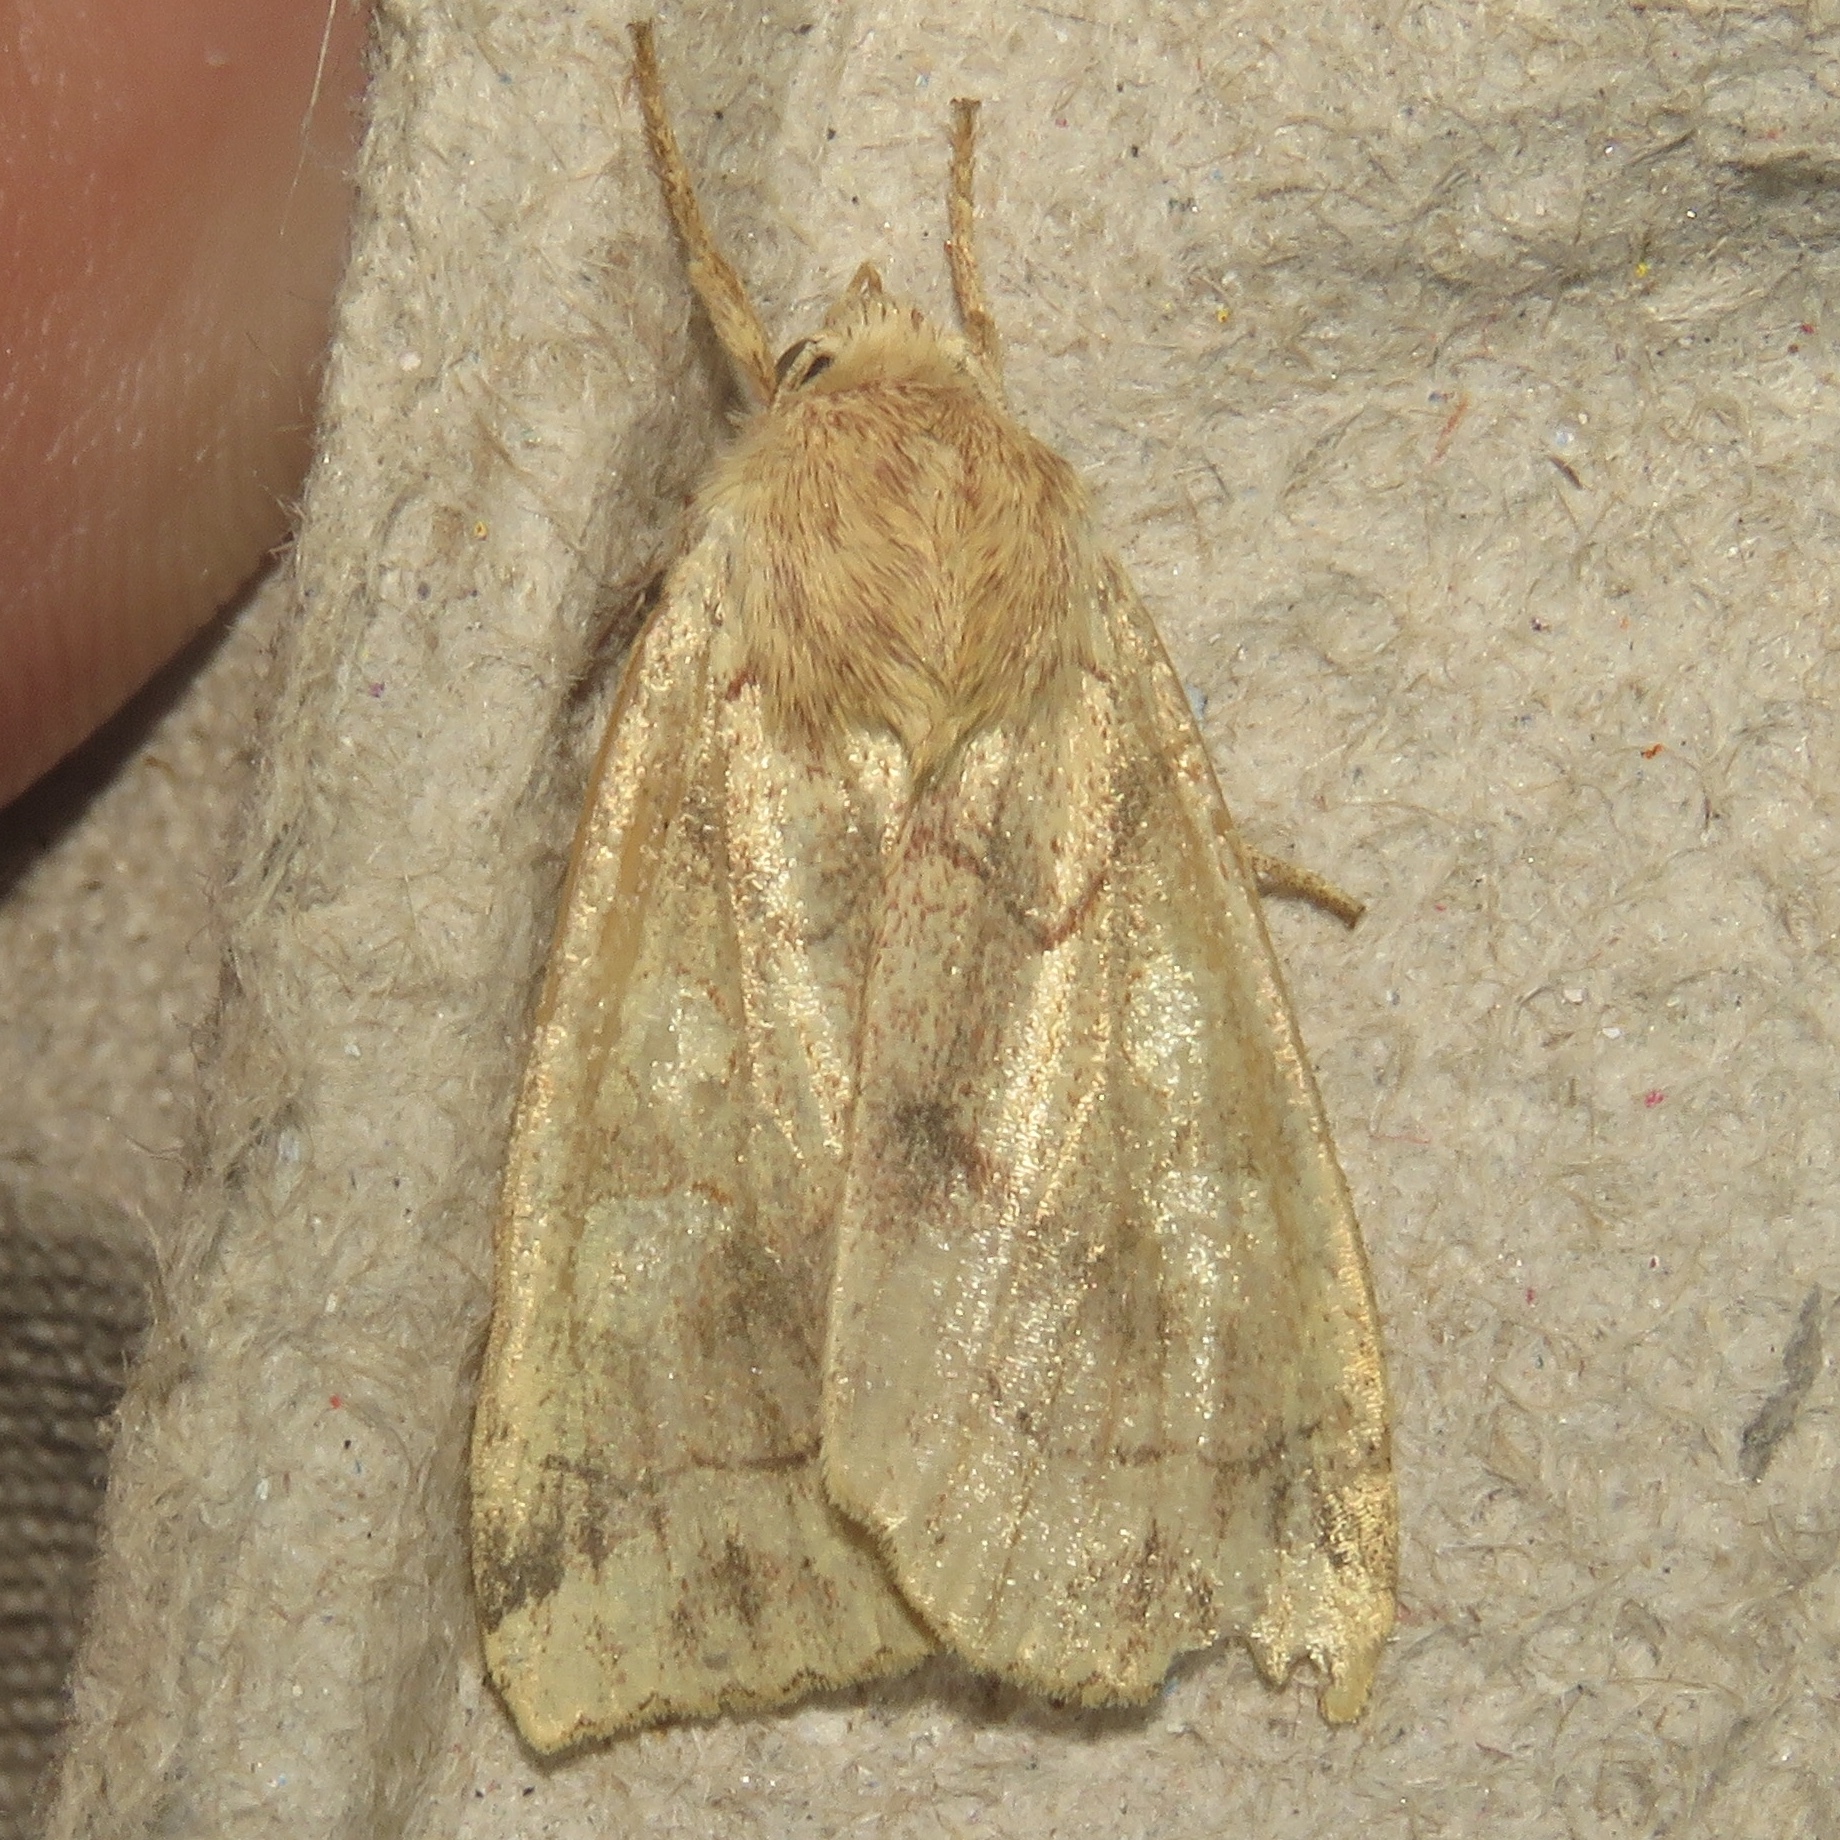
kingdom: Animalia
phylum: Arthropoda
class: Insecta
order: Lepidoptera
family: Noctuidae
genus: Enargia
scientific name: Enargia decolor
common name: Aspen twoleaf tier moth
